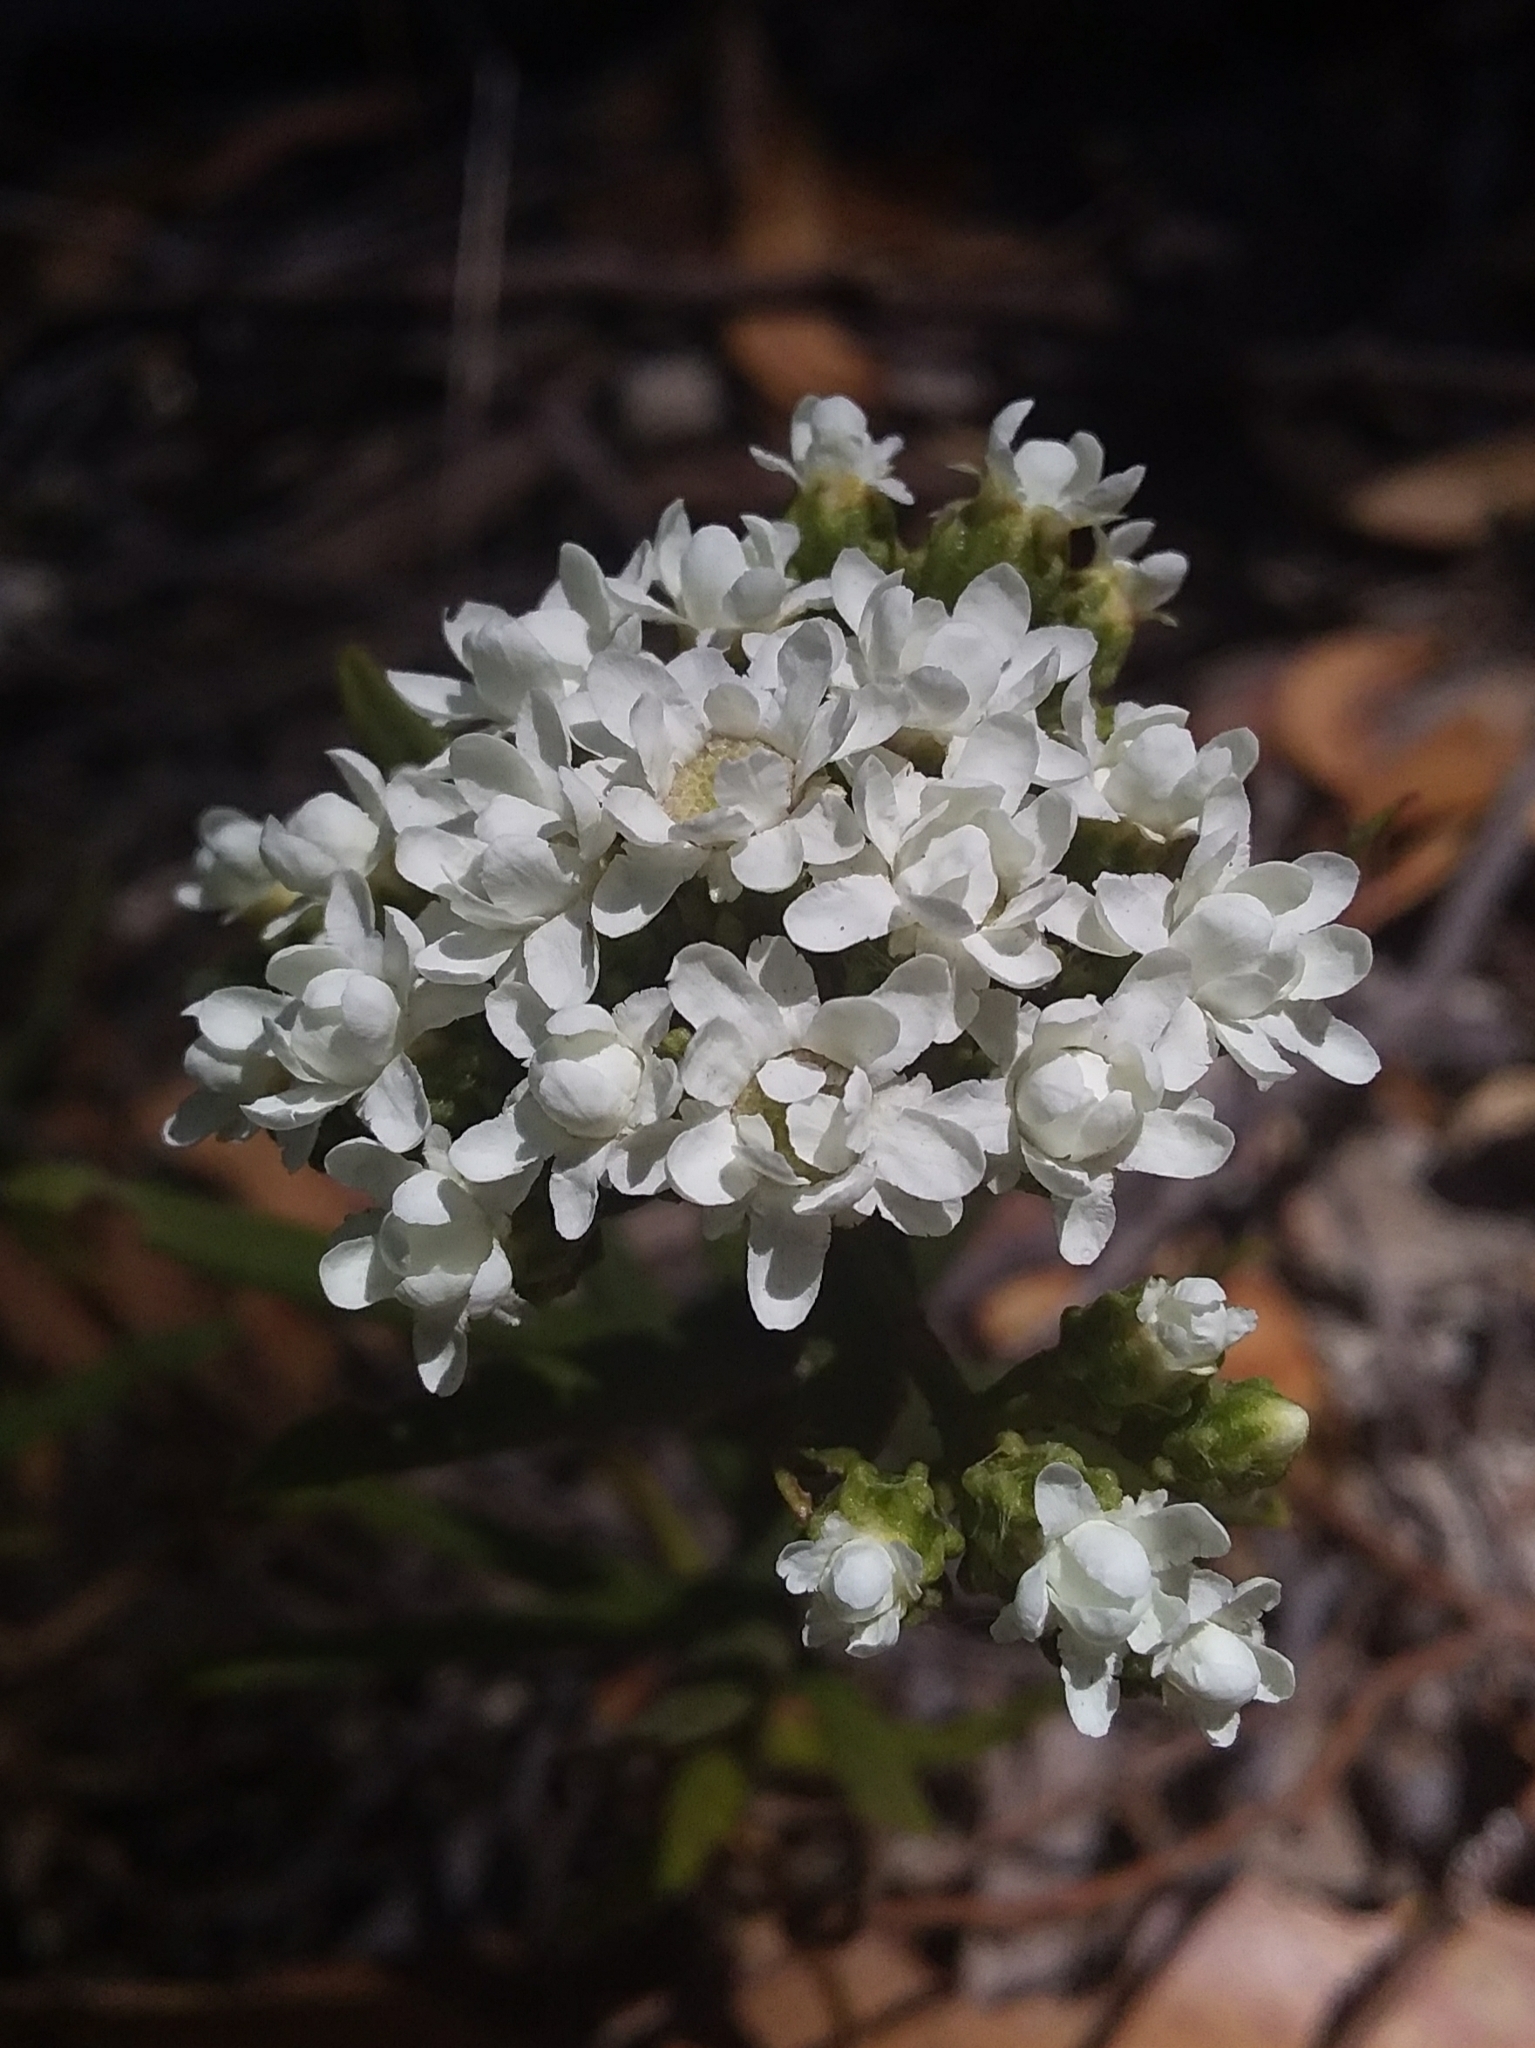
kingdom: Plantae
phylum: Tracheophyta
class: Magnoliopsida
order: Asterales
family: Asteraceae
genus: Ixodia
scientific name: Ixodia achillaeoides
